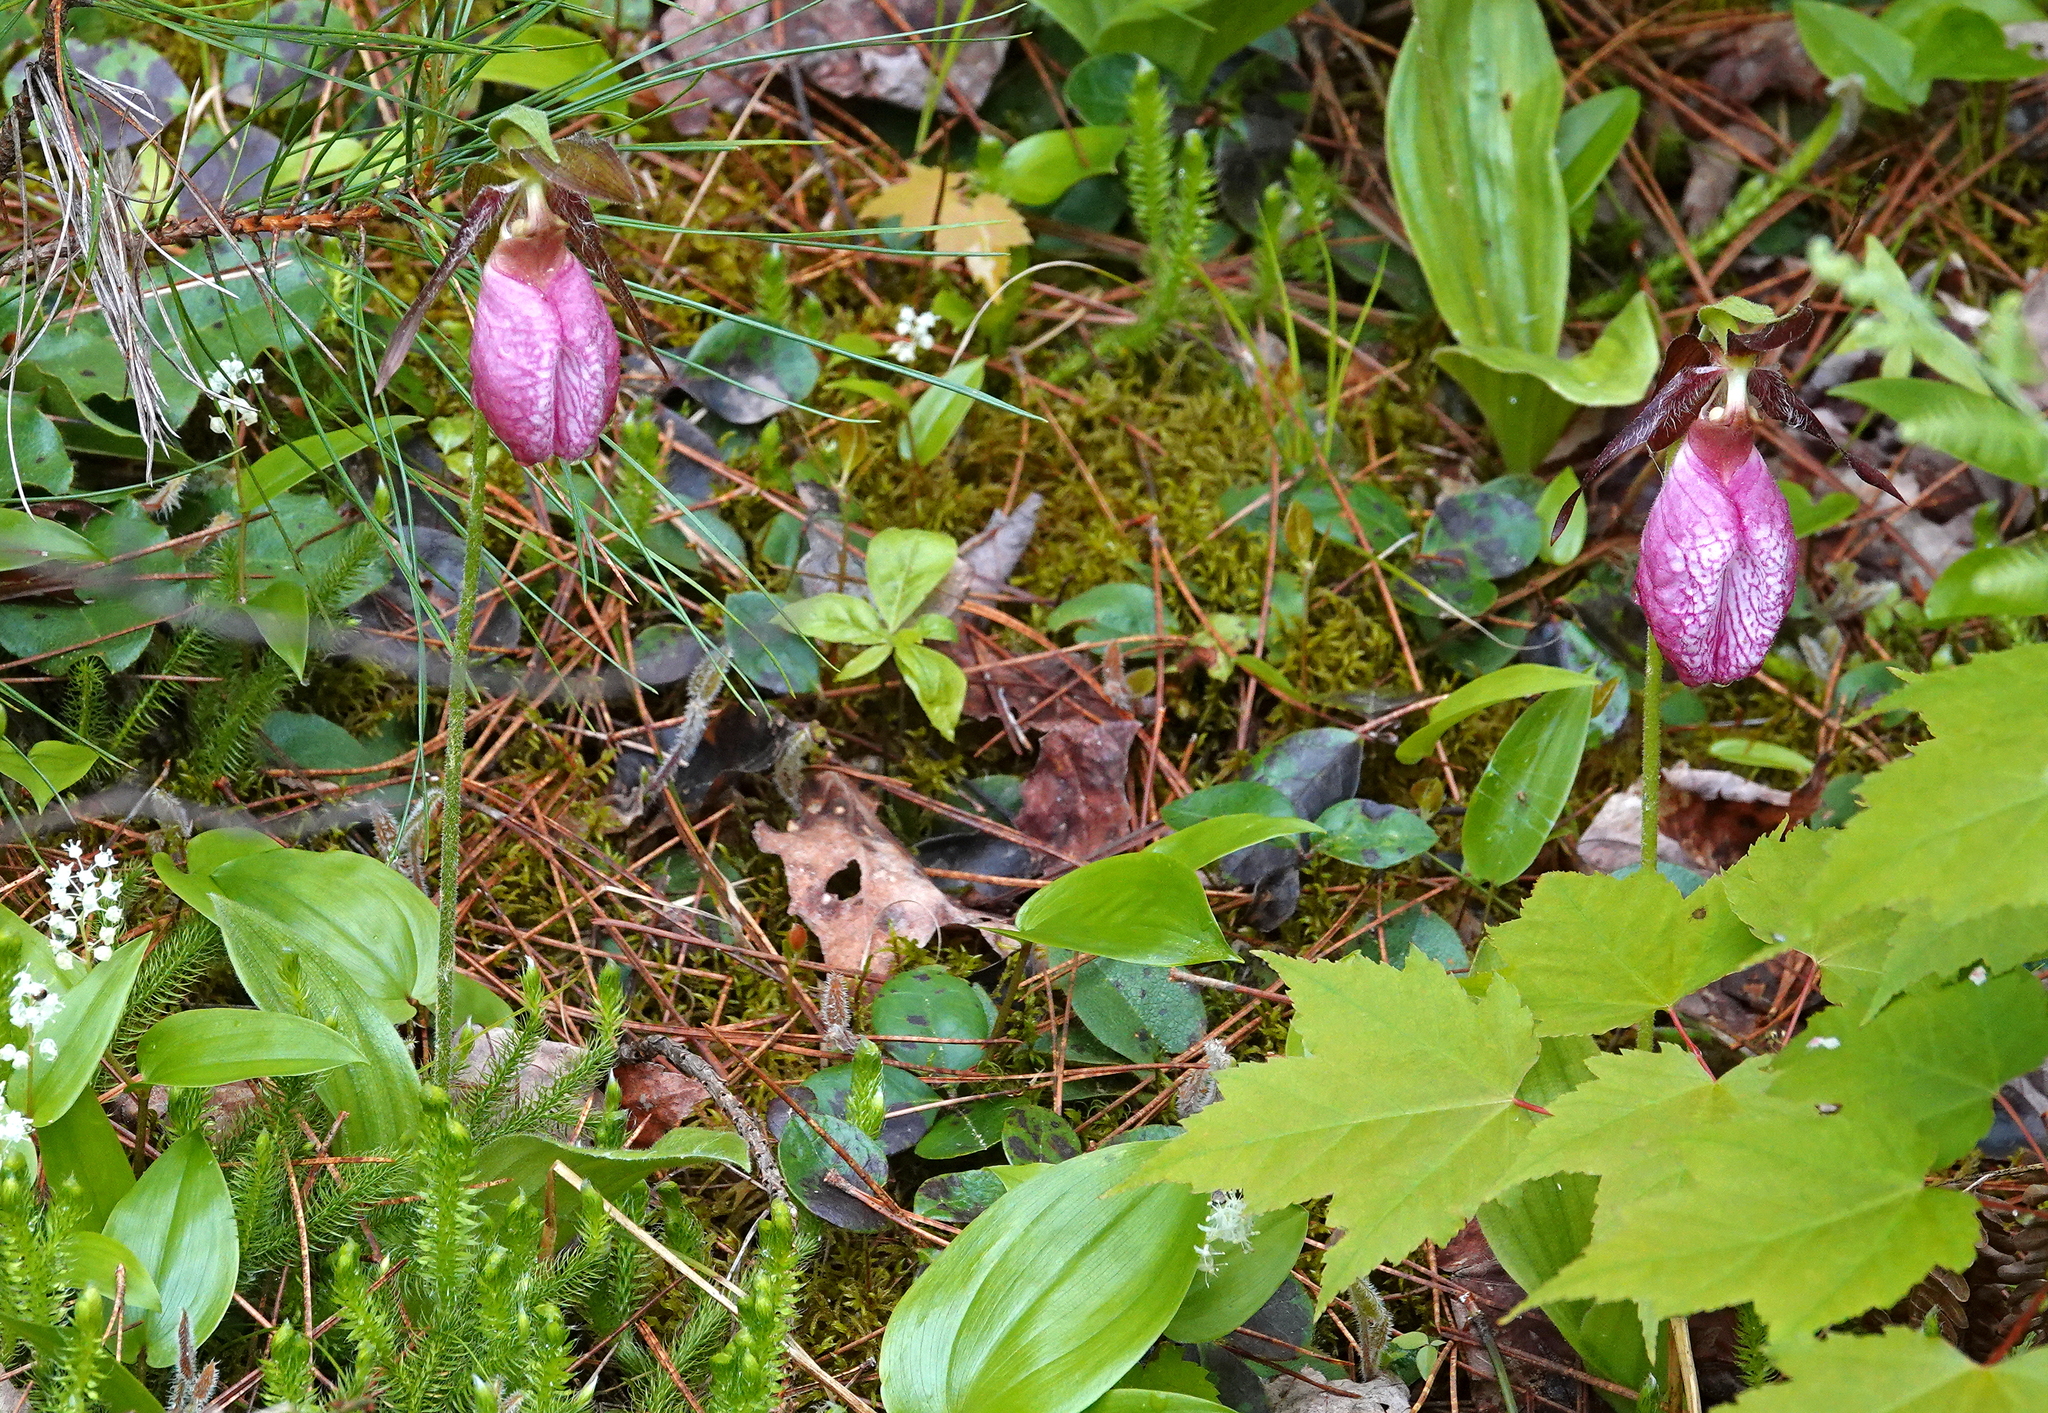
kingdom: Plantae
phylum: Tracheophyta
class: Liliopsida
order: Asparagales
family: Orchidaceae
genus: Cypripedium
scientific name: Cypripedium acaule
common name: Pink lady's-slipper
